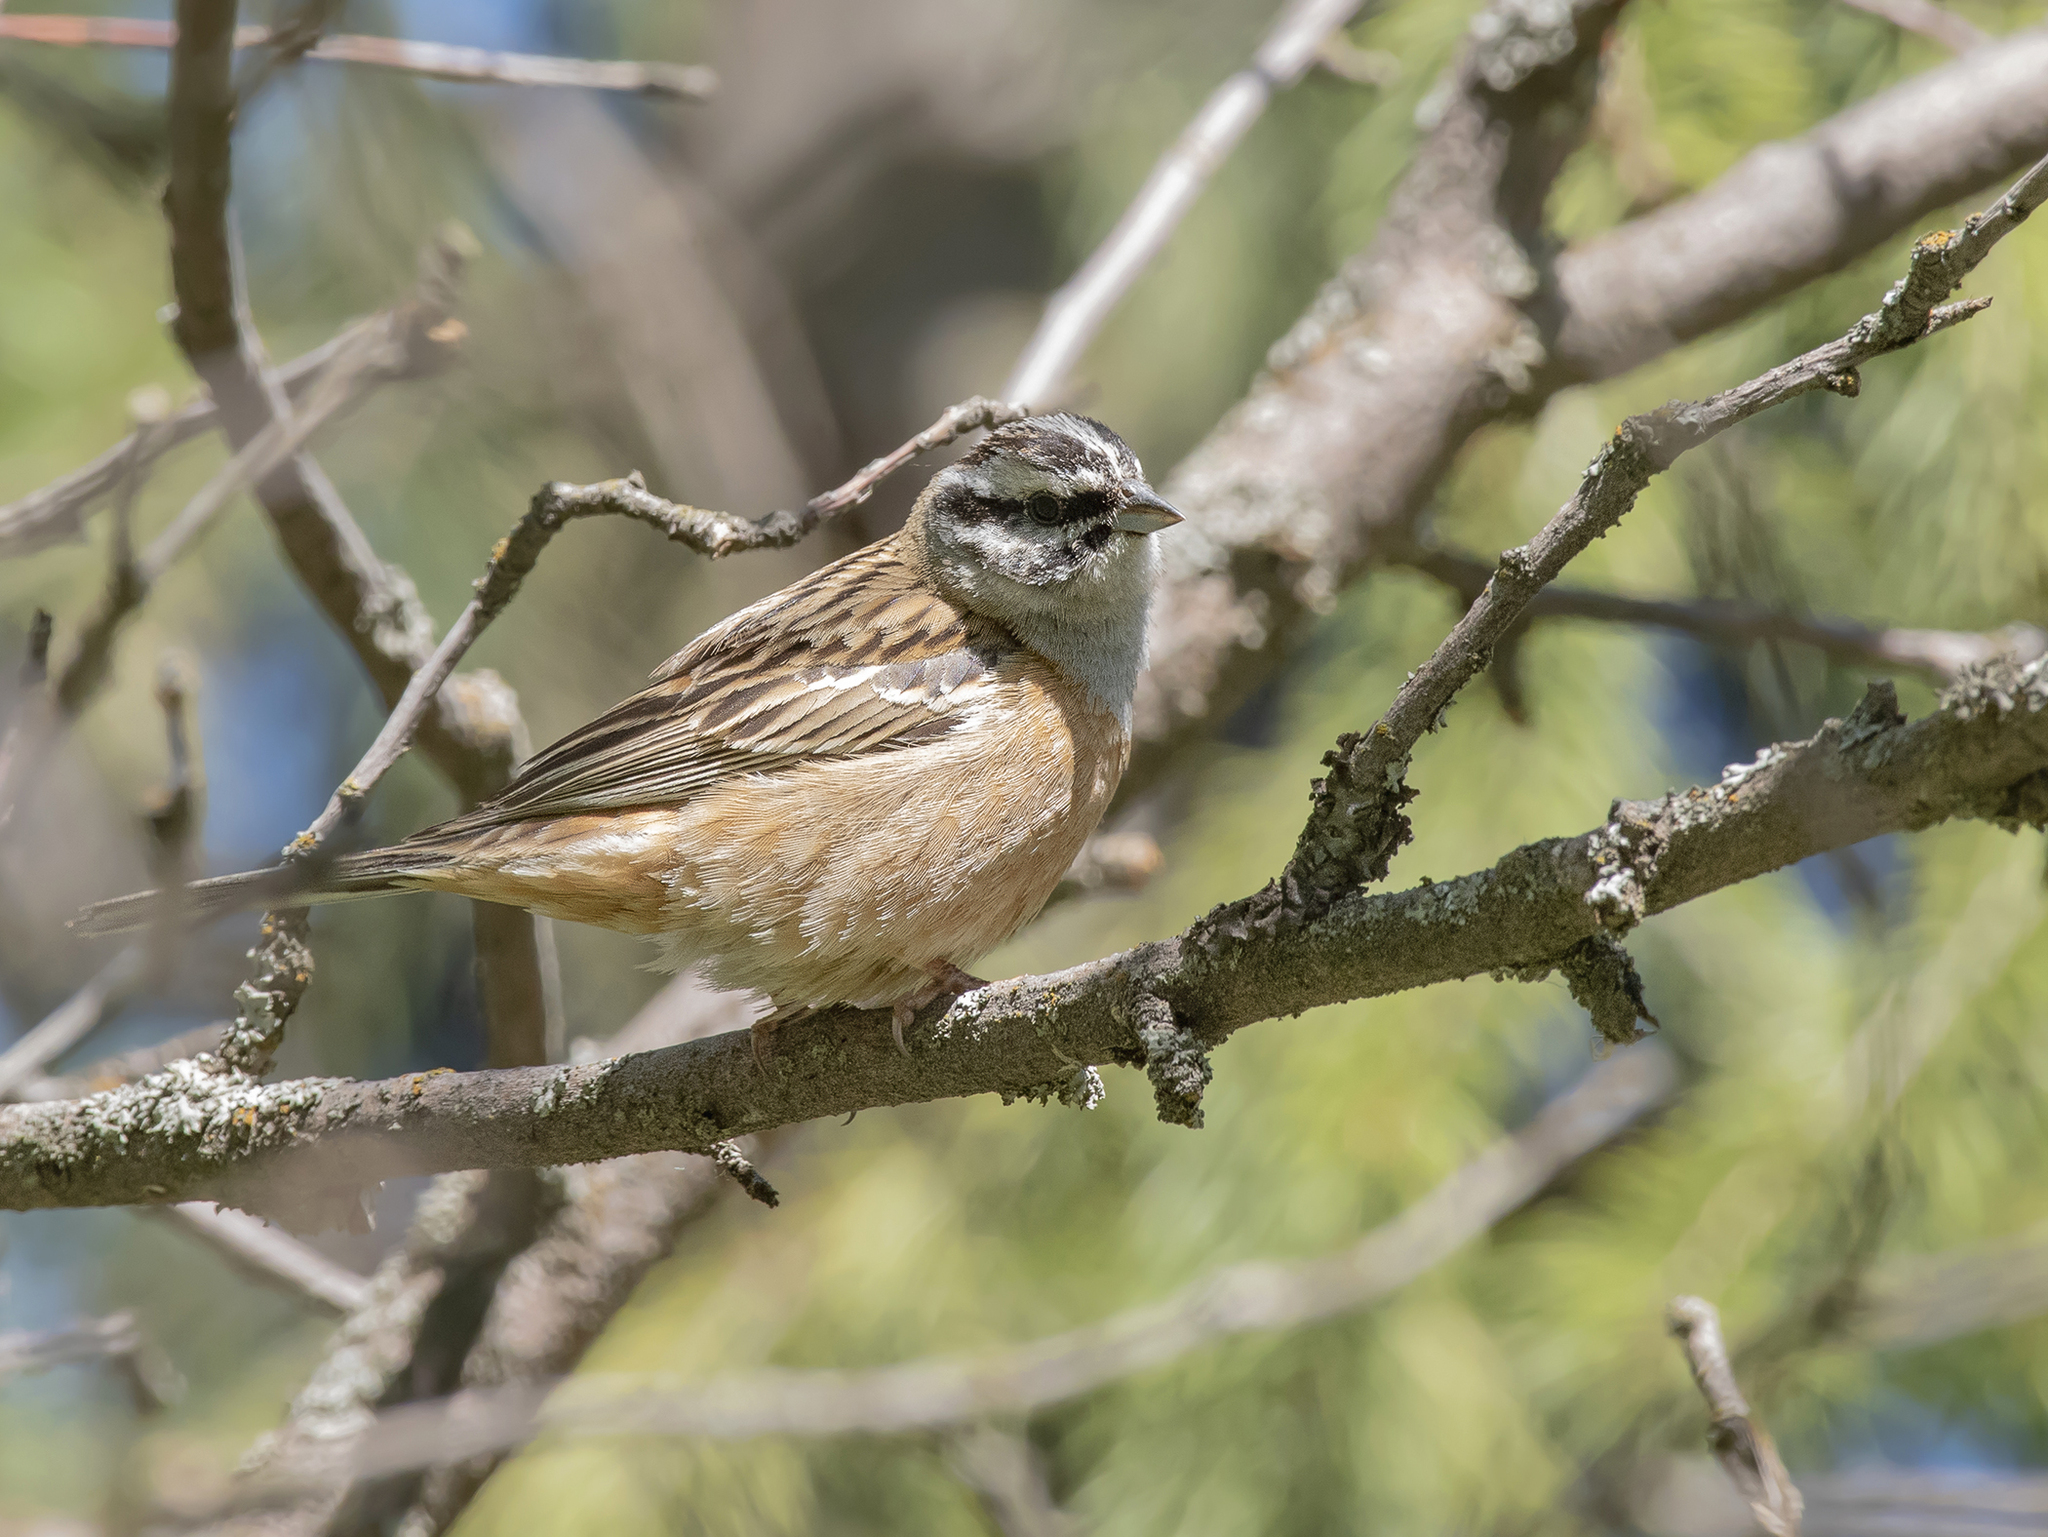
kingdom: Animalia
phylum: Chordata
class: Aves
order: Passeriformes
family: Emberizidae
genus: Emberiza
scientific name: Emberiza cia
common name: Rock bunting
